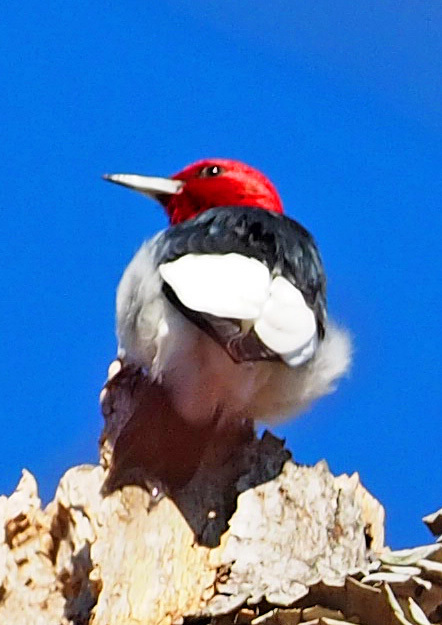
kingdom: Animalia
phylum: Chordata
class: Aves
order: Piciformes
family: Picidae
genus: Melanerpes
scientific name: Melanerpes erythrocephalus
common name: Red-headed woodpecker
